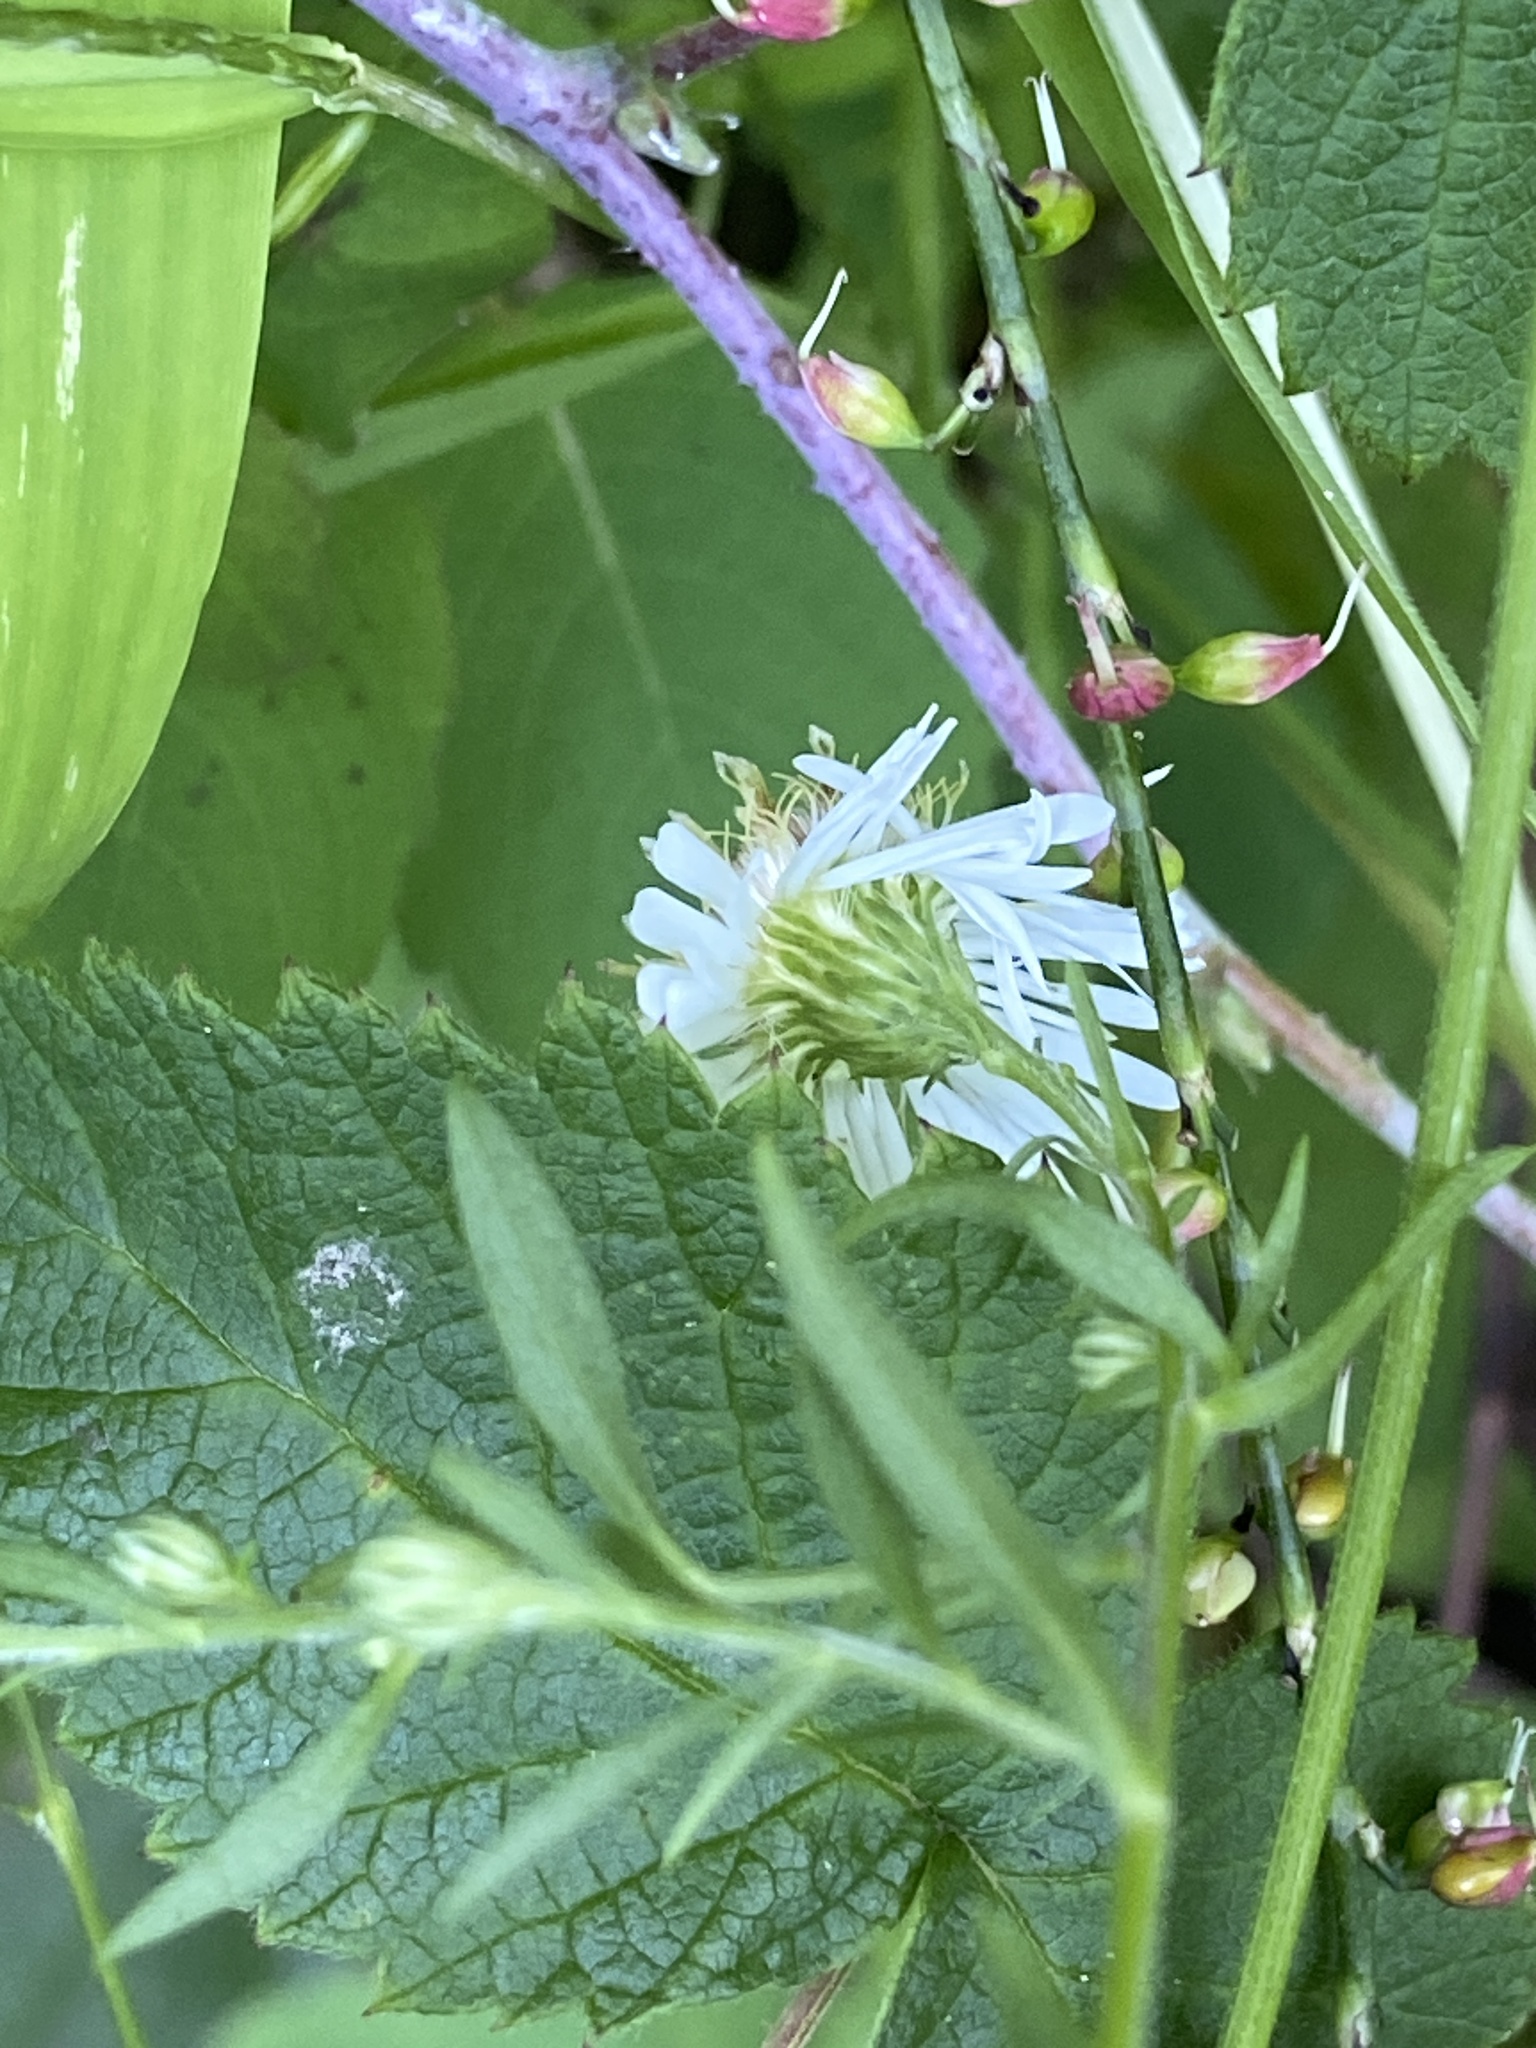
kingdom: Plantae
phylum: Tracheophyta
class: Magnoliopsida
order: Asterales
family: Asteraceae
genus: Symphyotrichum
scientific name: Symphyotrichum lanceolatum
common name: Panicled aster
